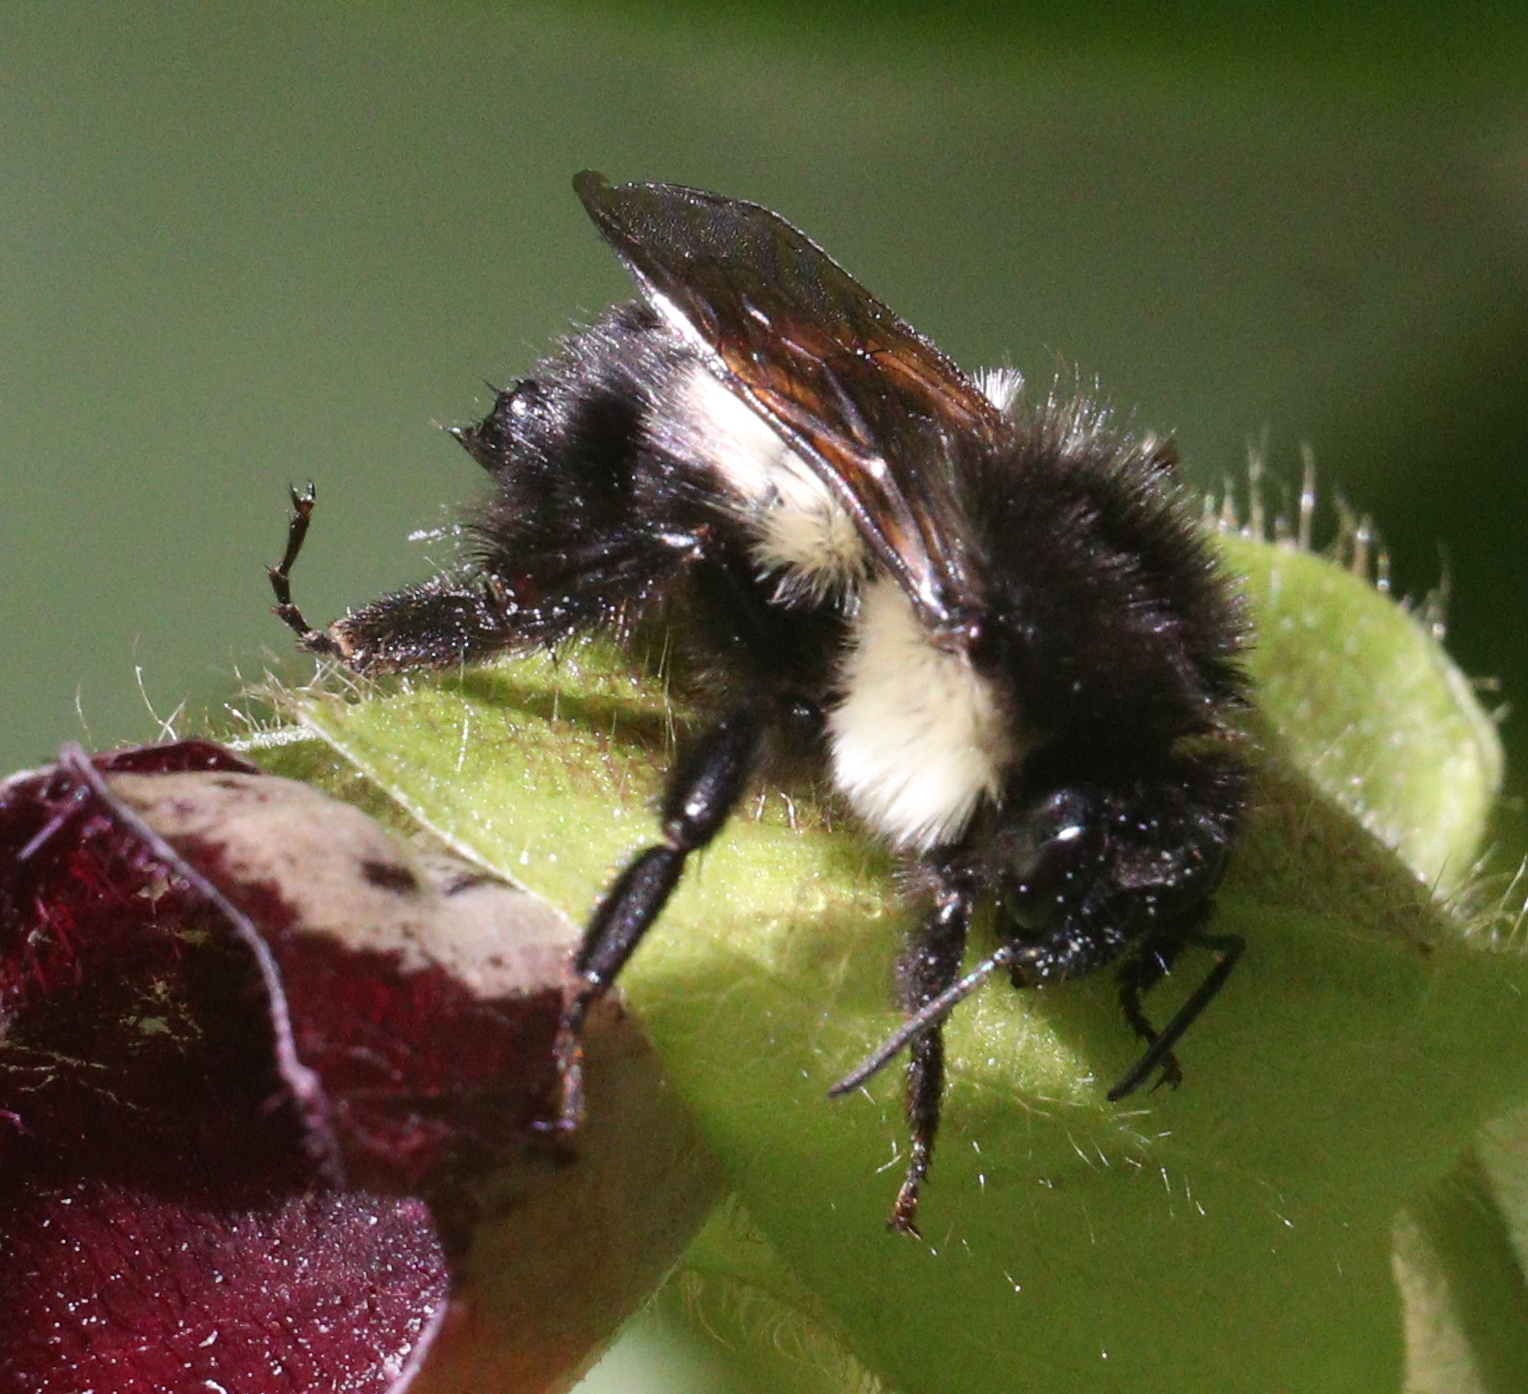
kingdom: Animalia
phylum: Arthropoda
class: Insecta
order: Hymenoptera
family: Apidae
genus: Bombus
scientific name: Bombus ephippiatus
